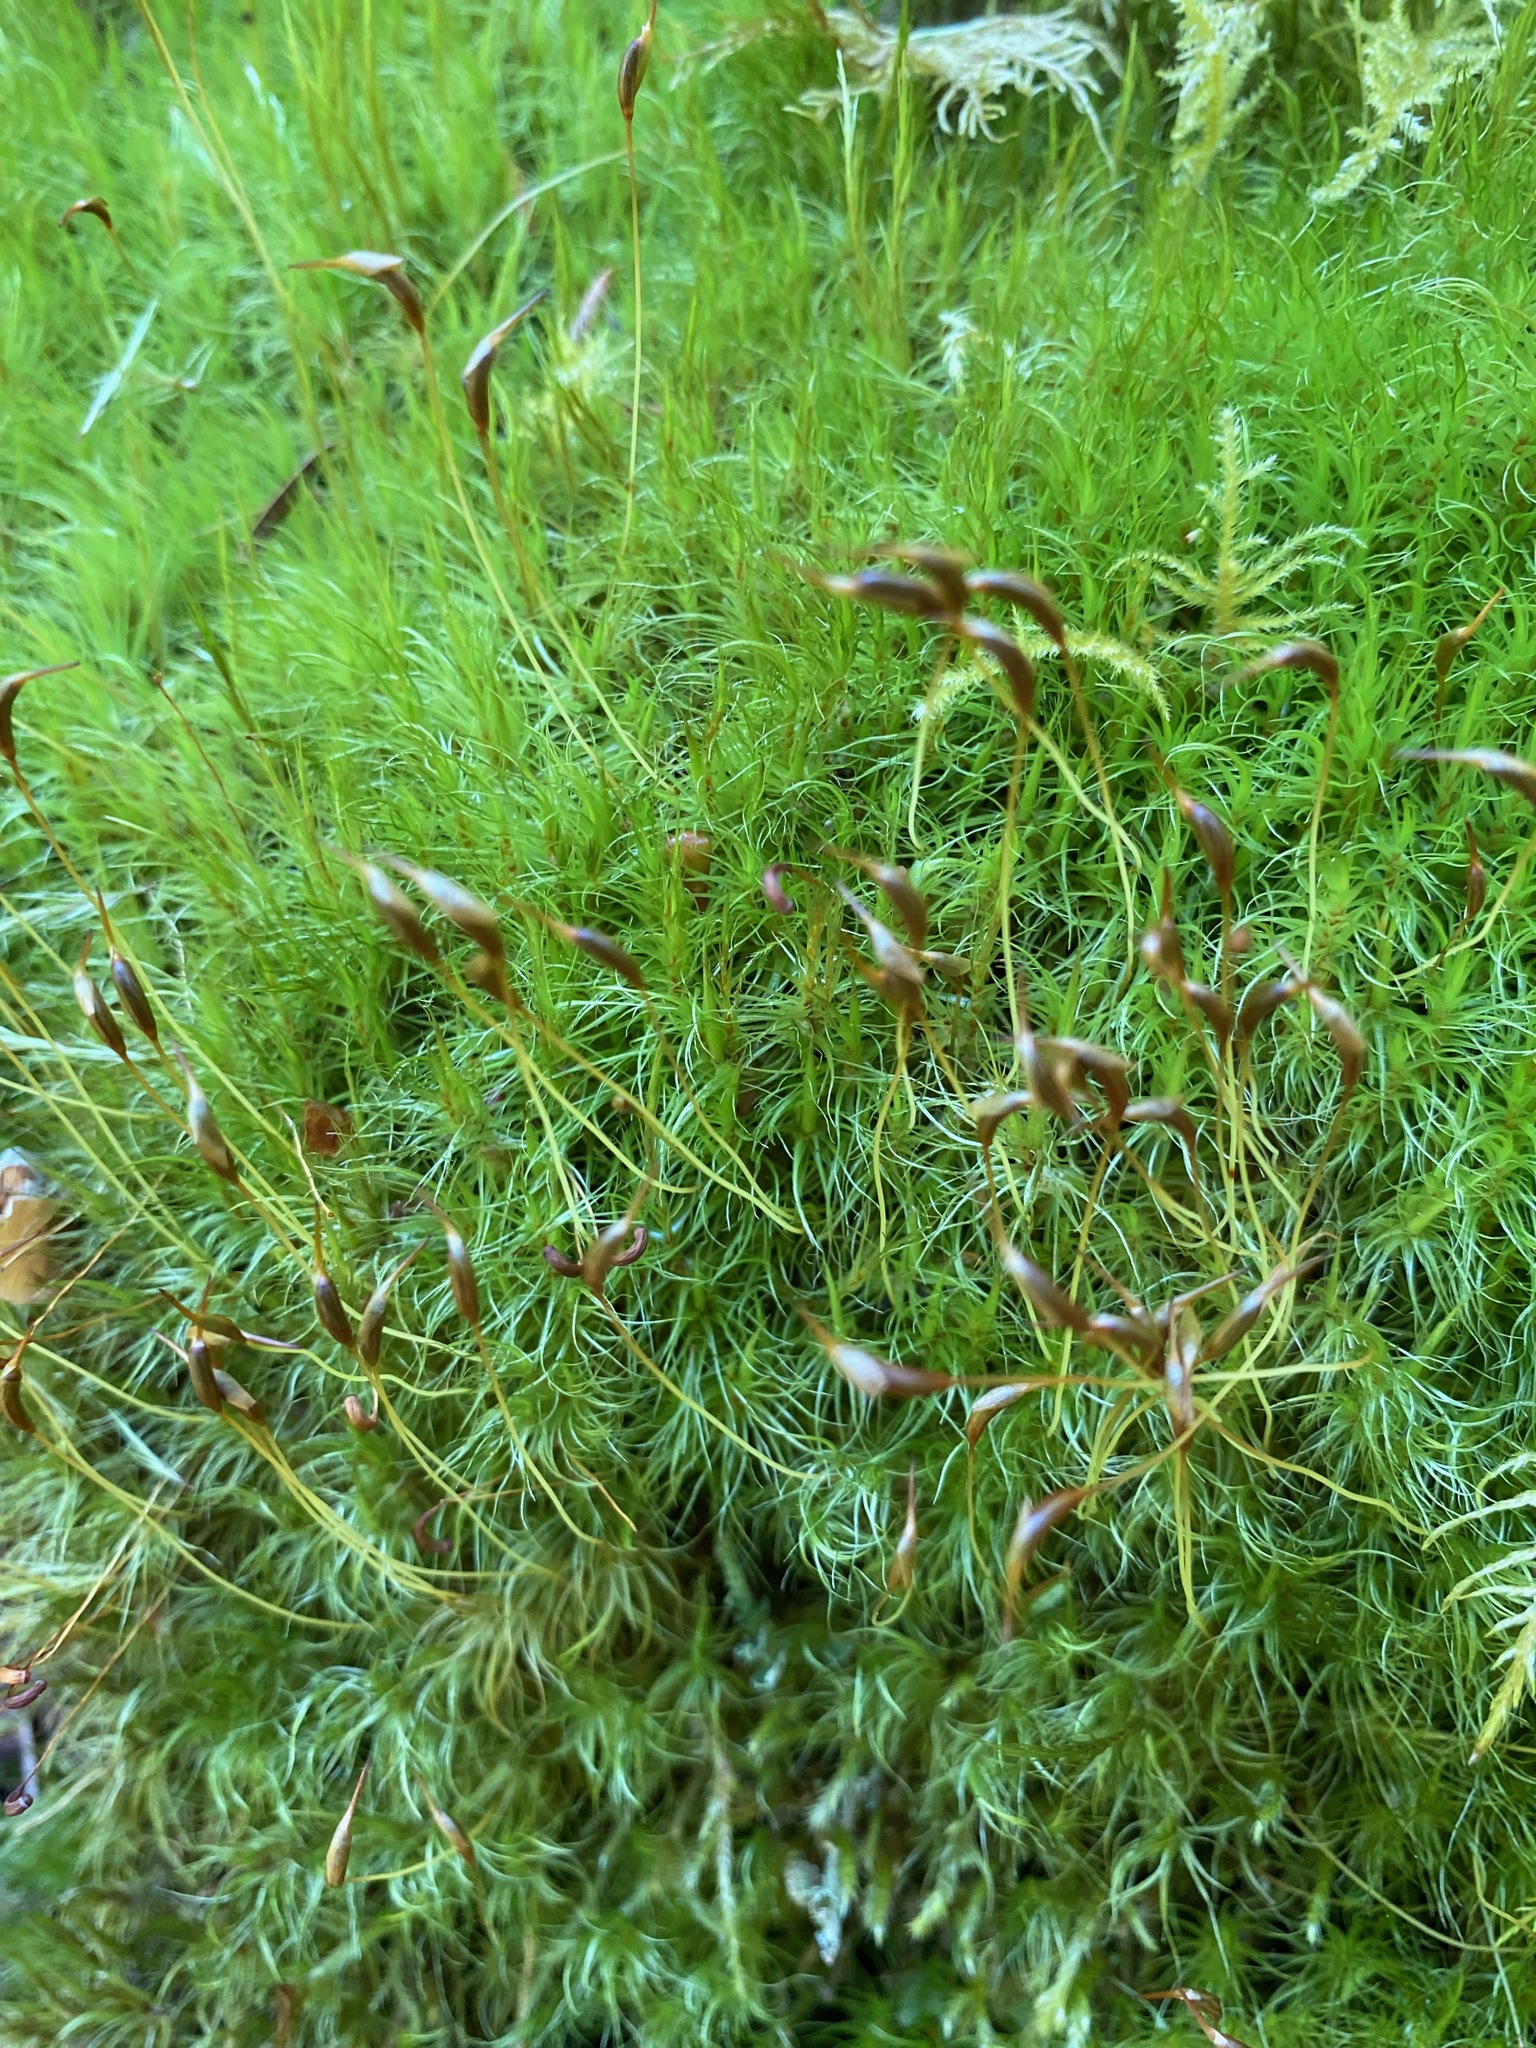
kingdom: Plantae
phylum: Bryophyta
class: Bryopsida
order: Dicranales
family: Dicranaceae
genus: Dicranum
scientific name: Dicranum scoparium
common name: Broom fork-moss
